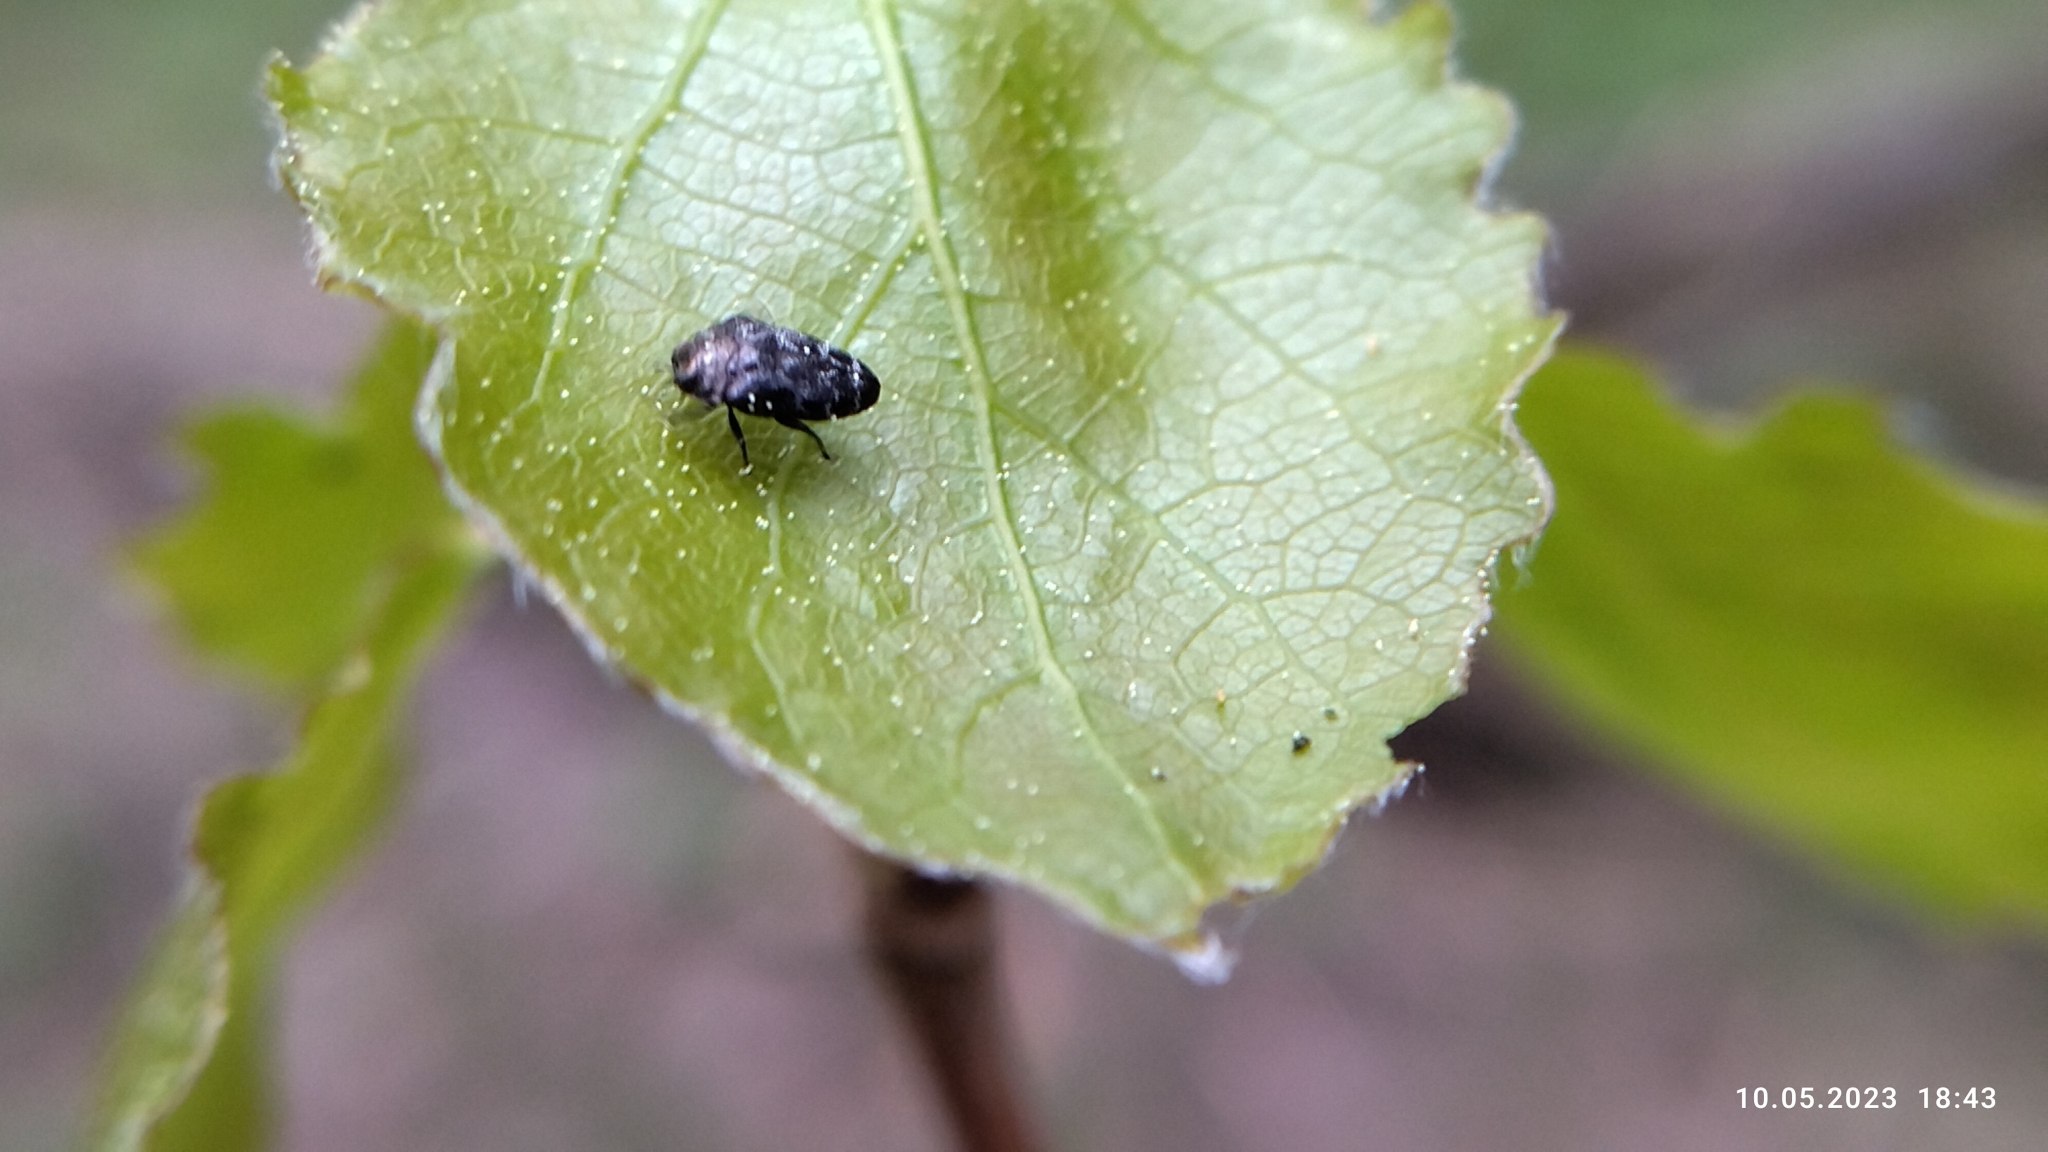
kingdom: Animalia
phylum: Arthropoda
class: Insecta
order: Coleoptera
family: Buprestidae
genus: Trachys
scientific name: Trachys minutus
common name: Metallic wood-boring beetle
